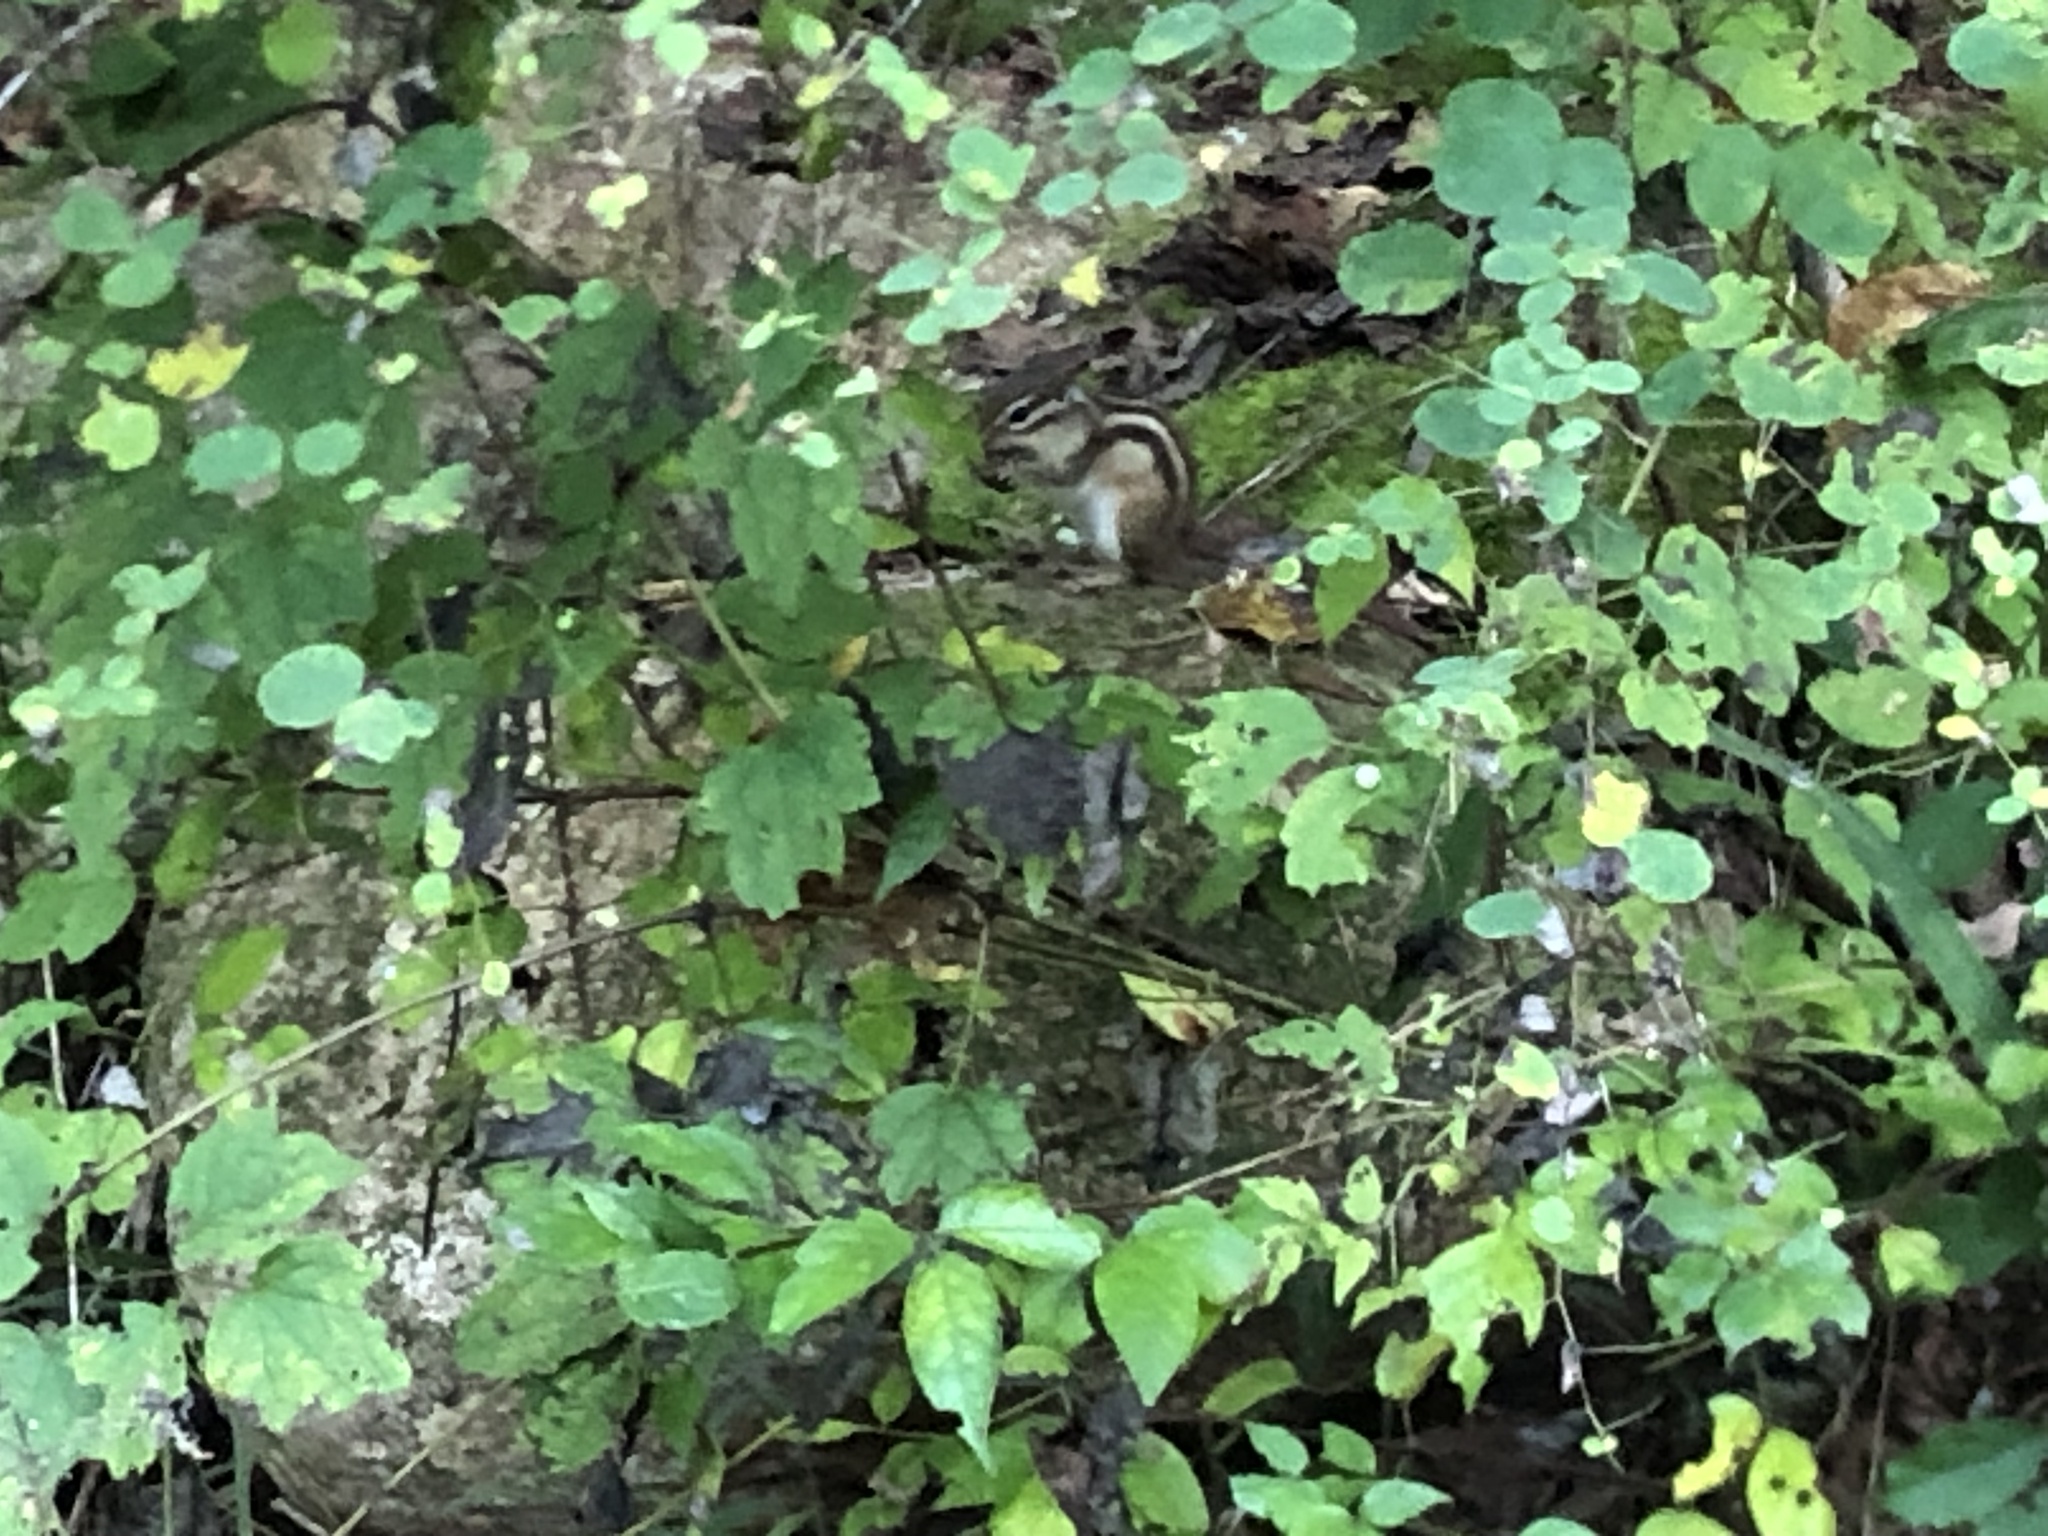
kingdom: Animalia
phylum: Chordata
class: Mammalia
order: Rodentia
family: Sciuridae
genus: Tamias
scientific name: Tamias sibiricus
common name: Siberian chipmunk
